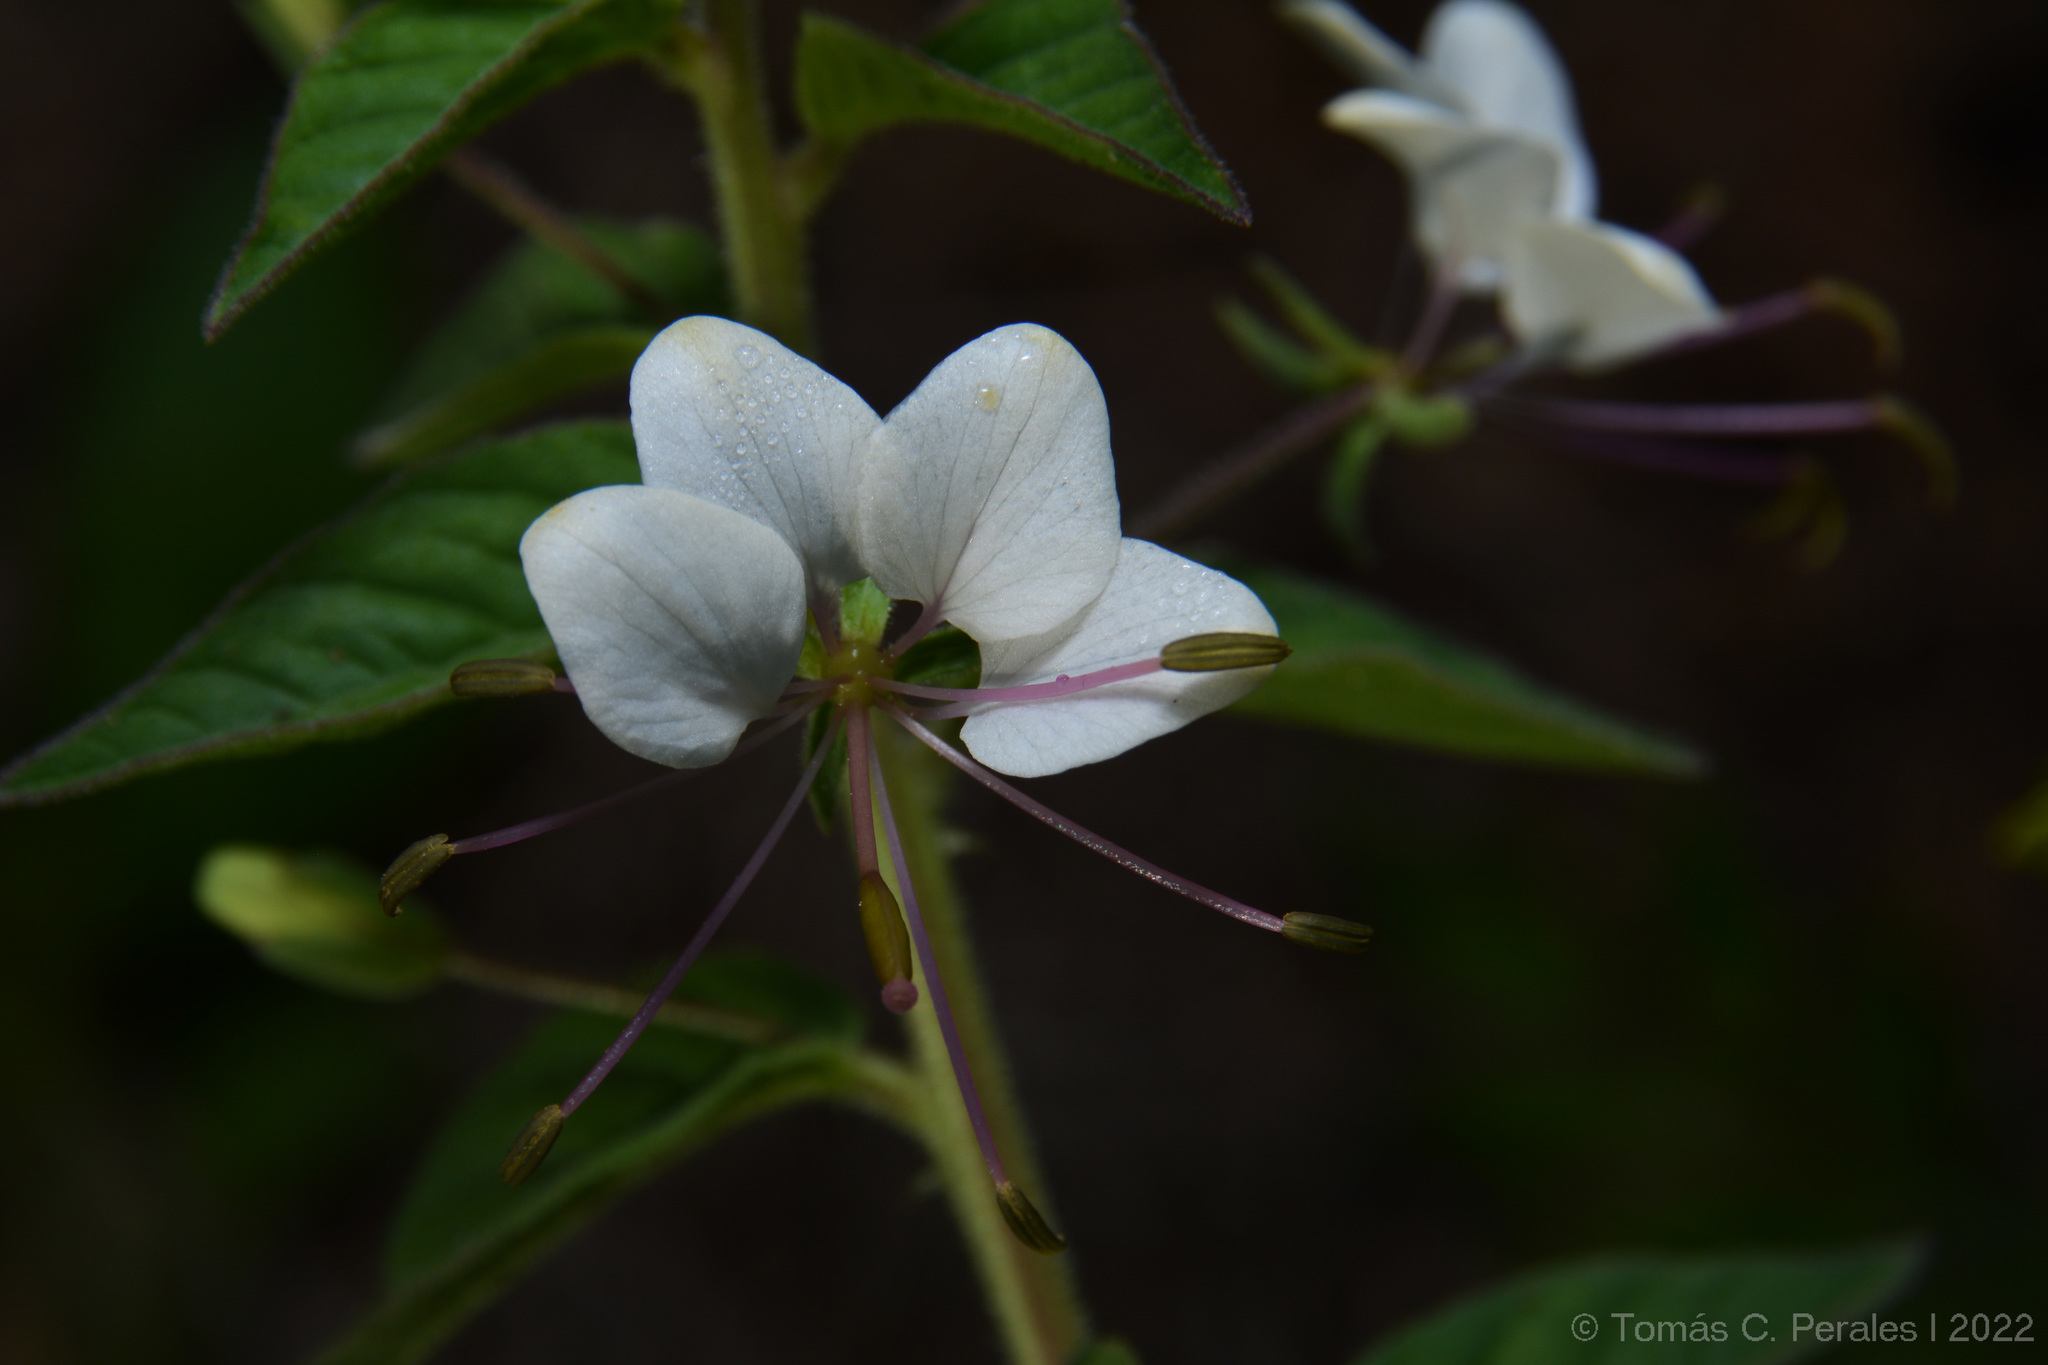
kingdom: Plantae
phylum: Tracheophyta
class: Magnoliopsida
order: Brassicales
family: Cleomaceae
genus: Tarenaya
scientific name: Tarenaya cordobensis
